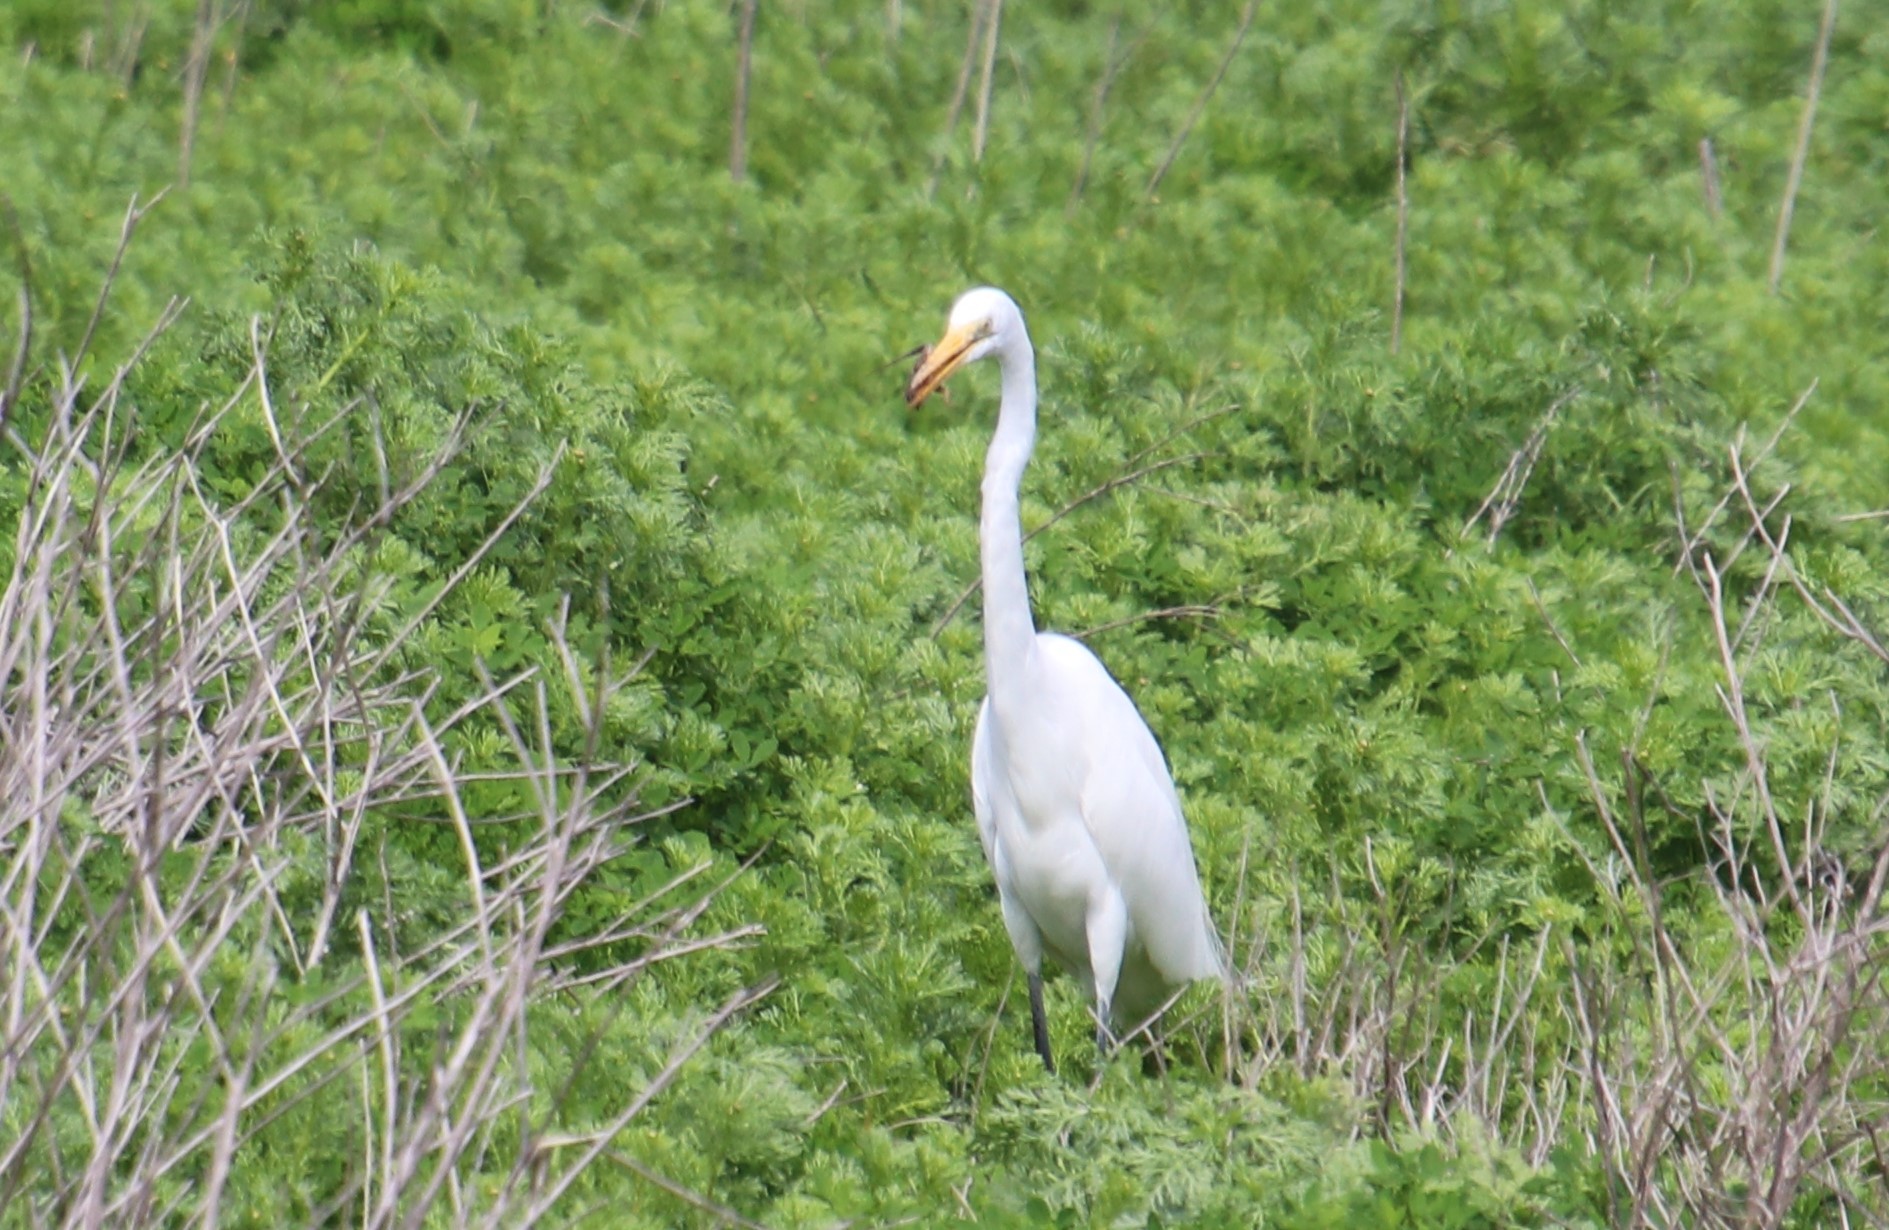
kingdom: Animalia
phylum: Chordata
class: Aves
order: Pelecaniformes
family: Ardeidae
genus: Ardea
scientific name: Ardea alba
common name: Great egret
